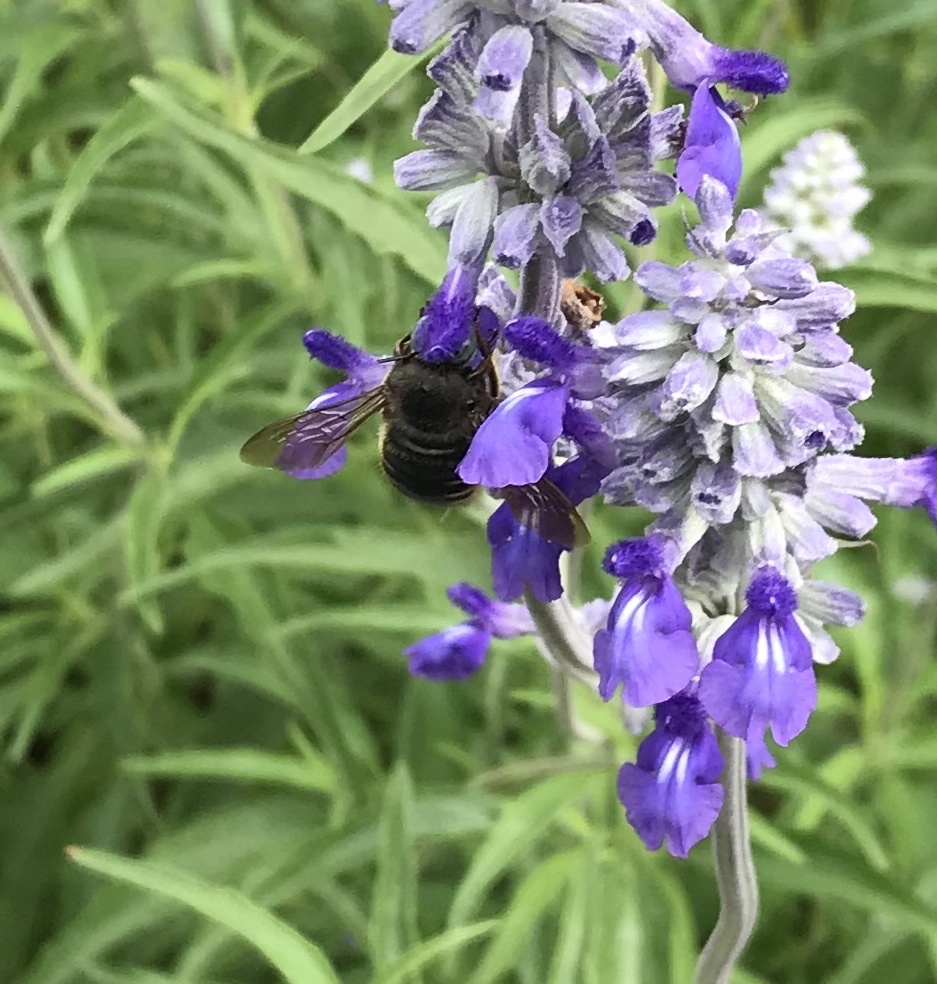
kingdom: Animalia
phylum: Arthropoda
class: Insecta
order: Hymenoptera
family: Apidae
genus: Xylocopa
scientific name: Xylocopa tabaniformis
